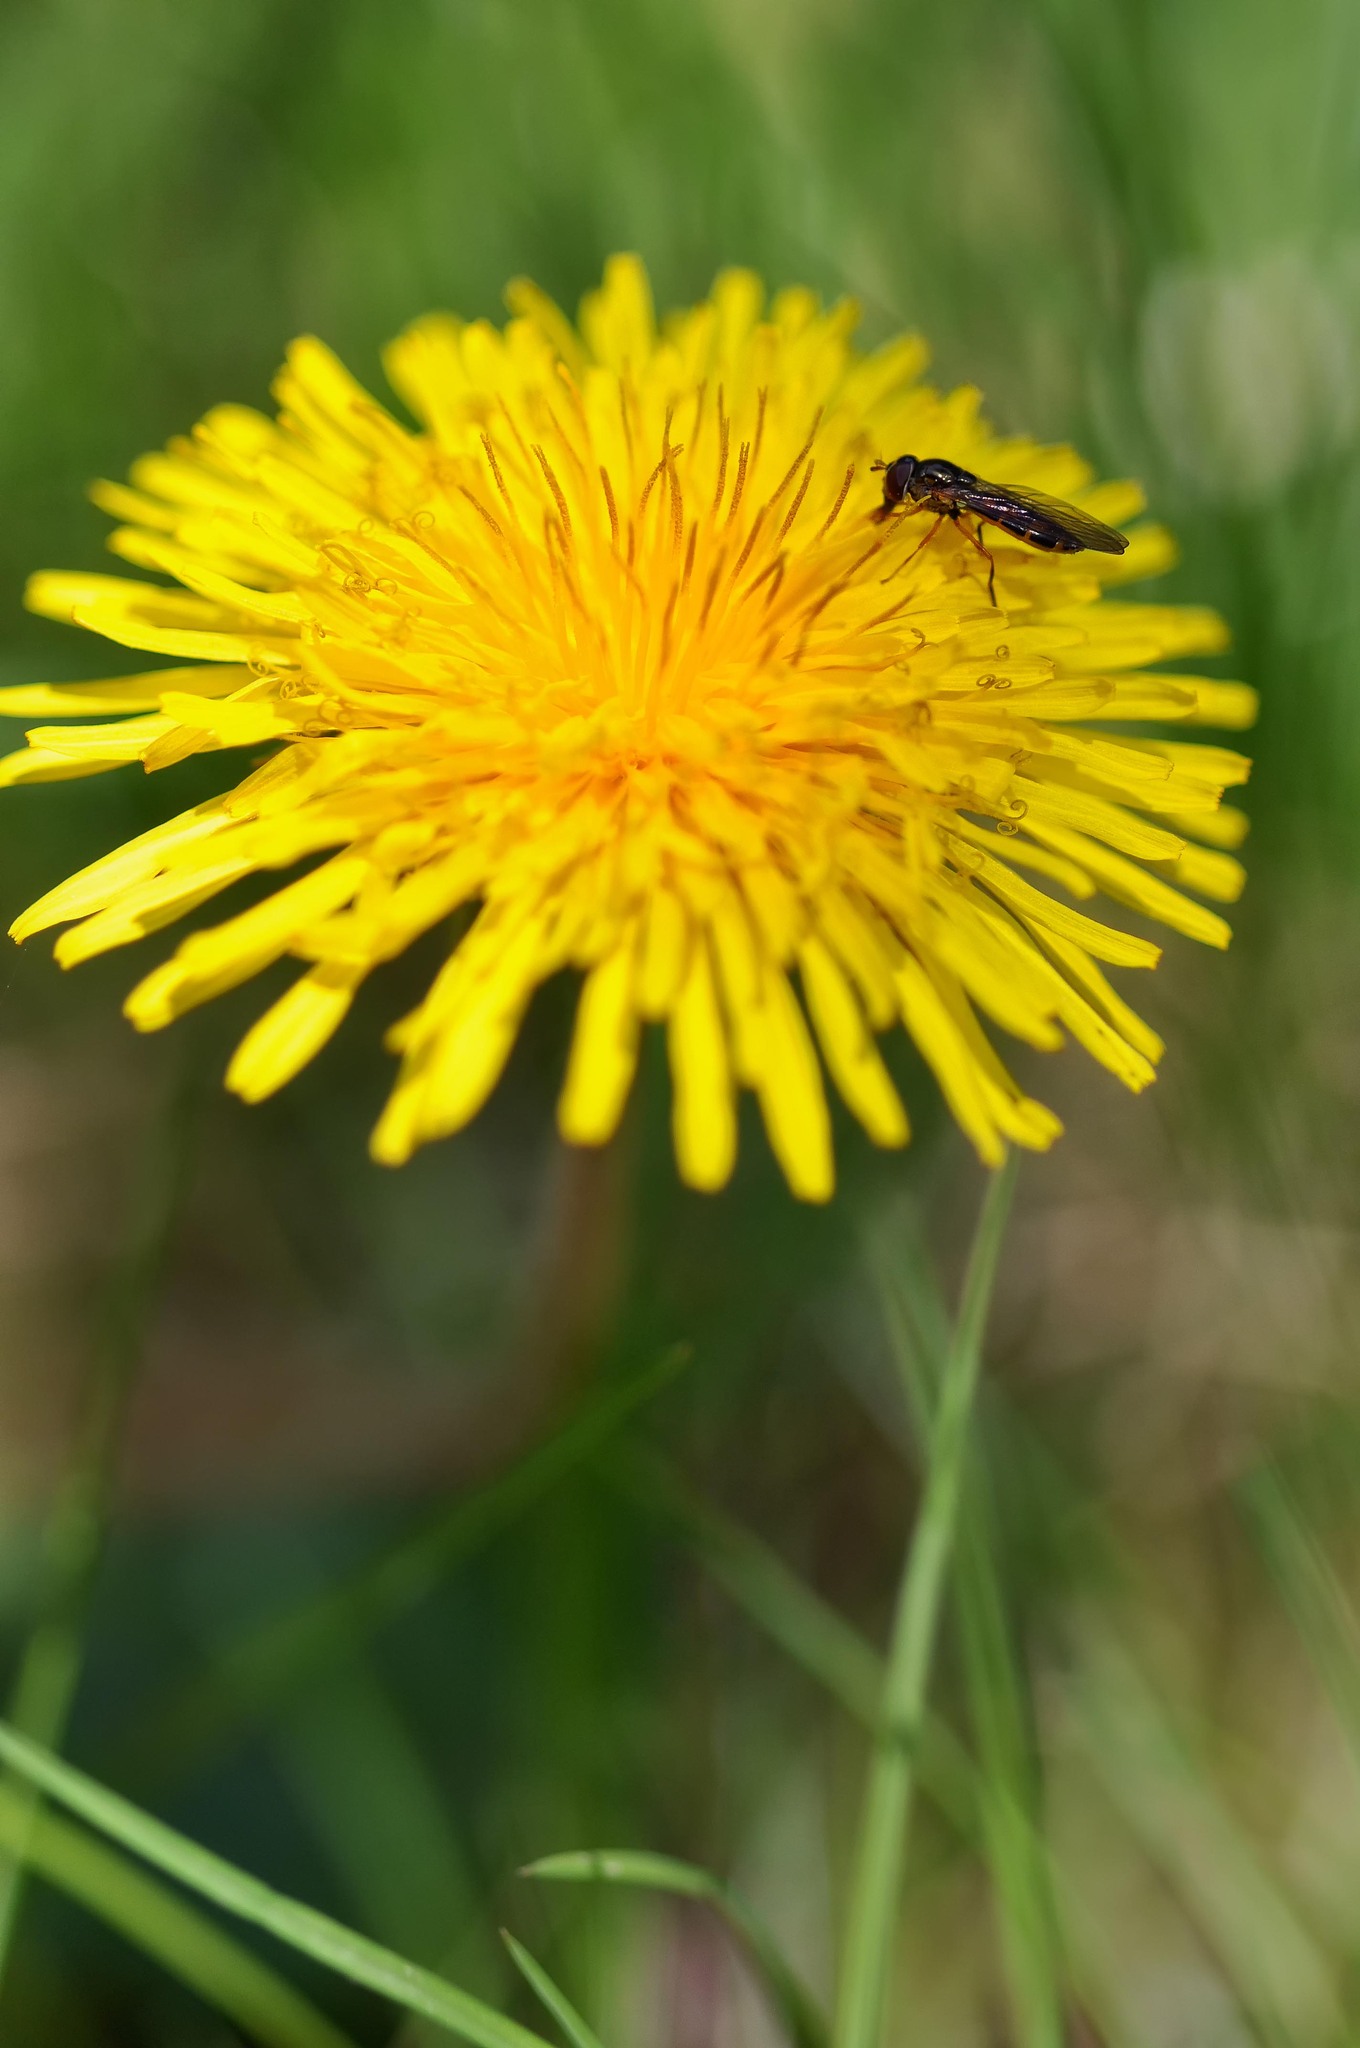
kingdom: Animalia
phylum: Arthropoda
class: Insecta
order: Diptera
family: Syrphidae
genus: Melanostoma
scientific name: Melanostoma
